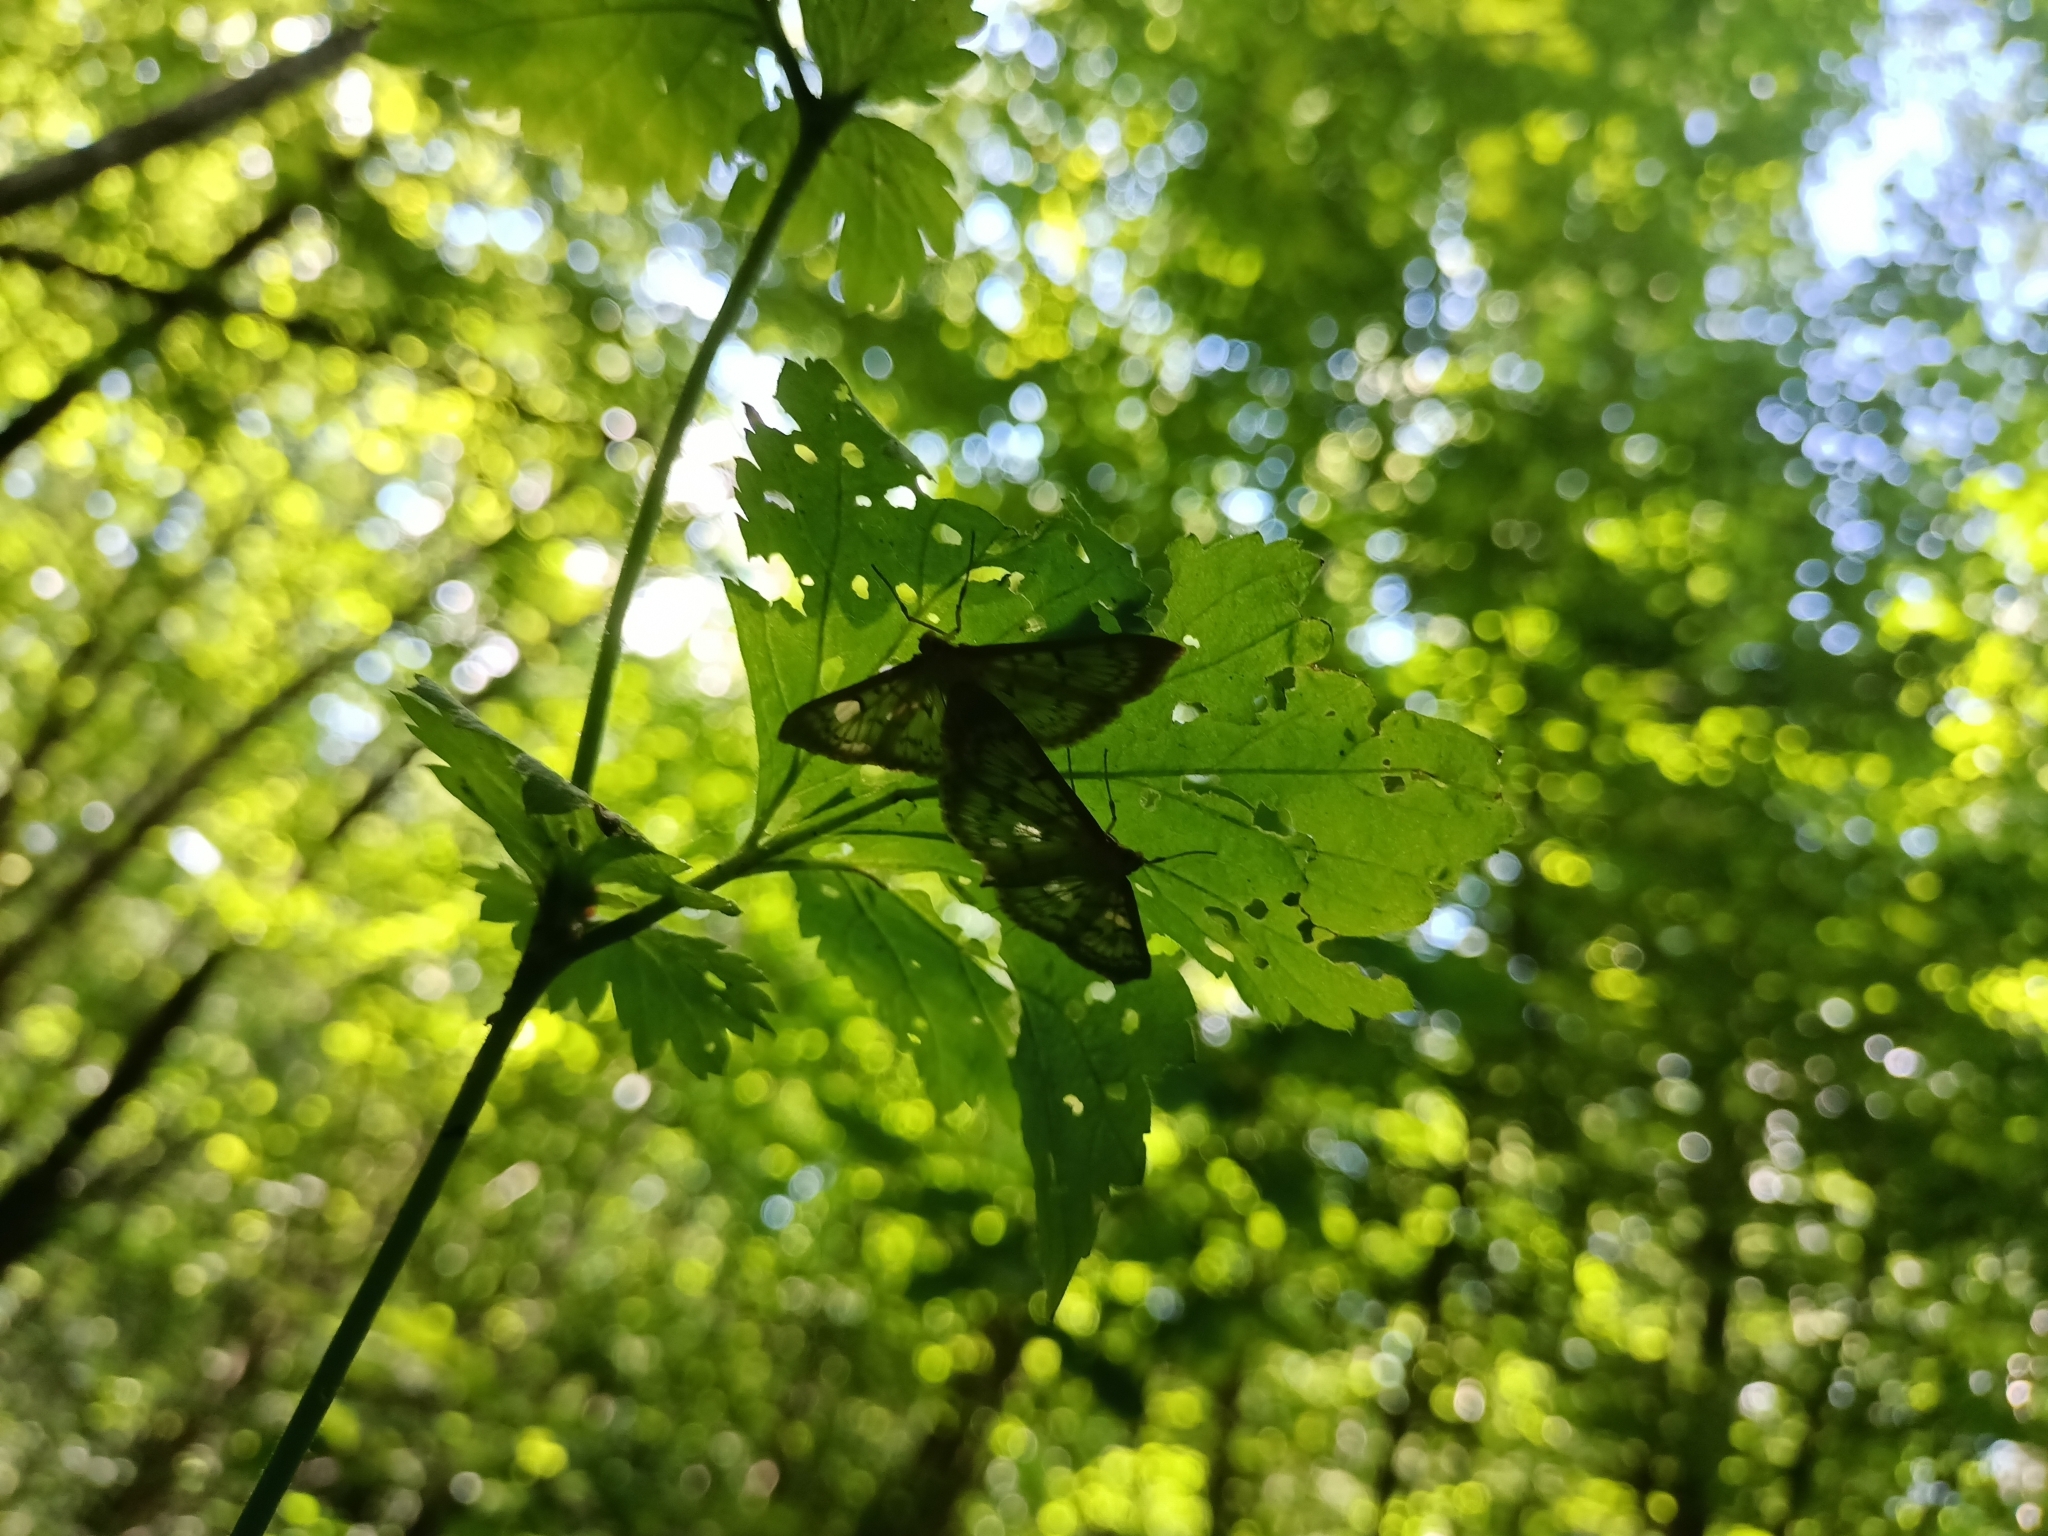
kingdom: Animalia
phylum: Arthropoda
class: Insecta
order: Lepidoptera
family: Crambidae
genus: Patania
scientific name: Patania ruralis
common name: Mother of pearl
